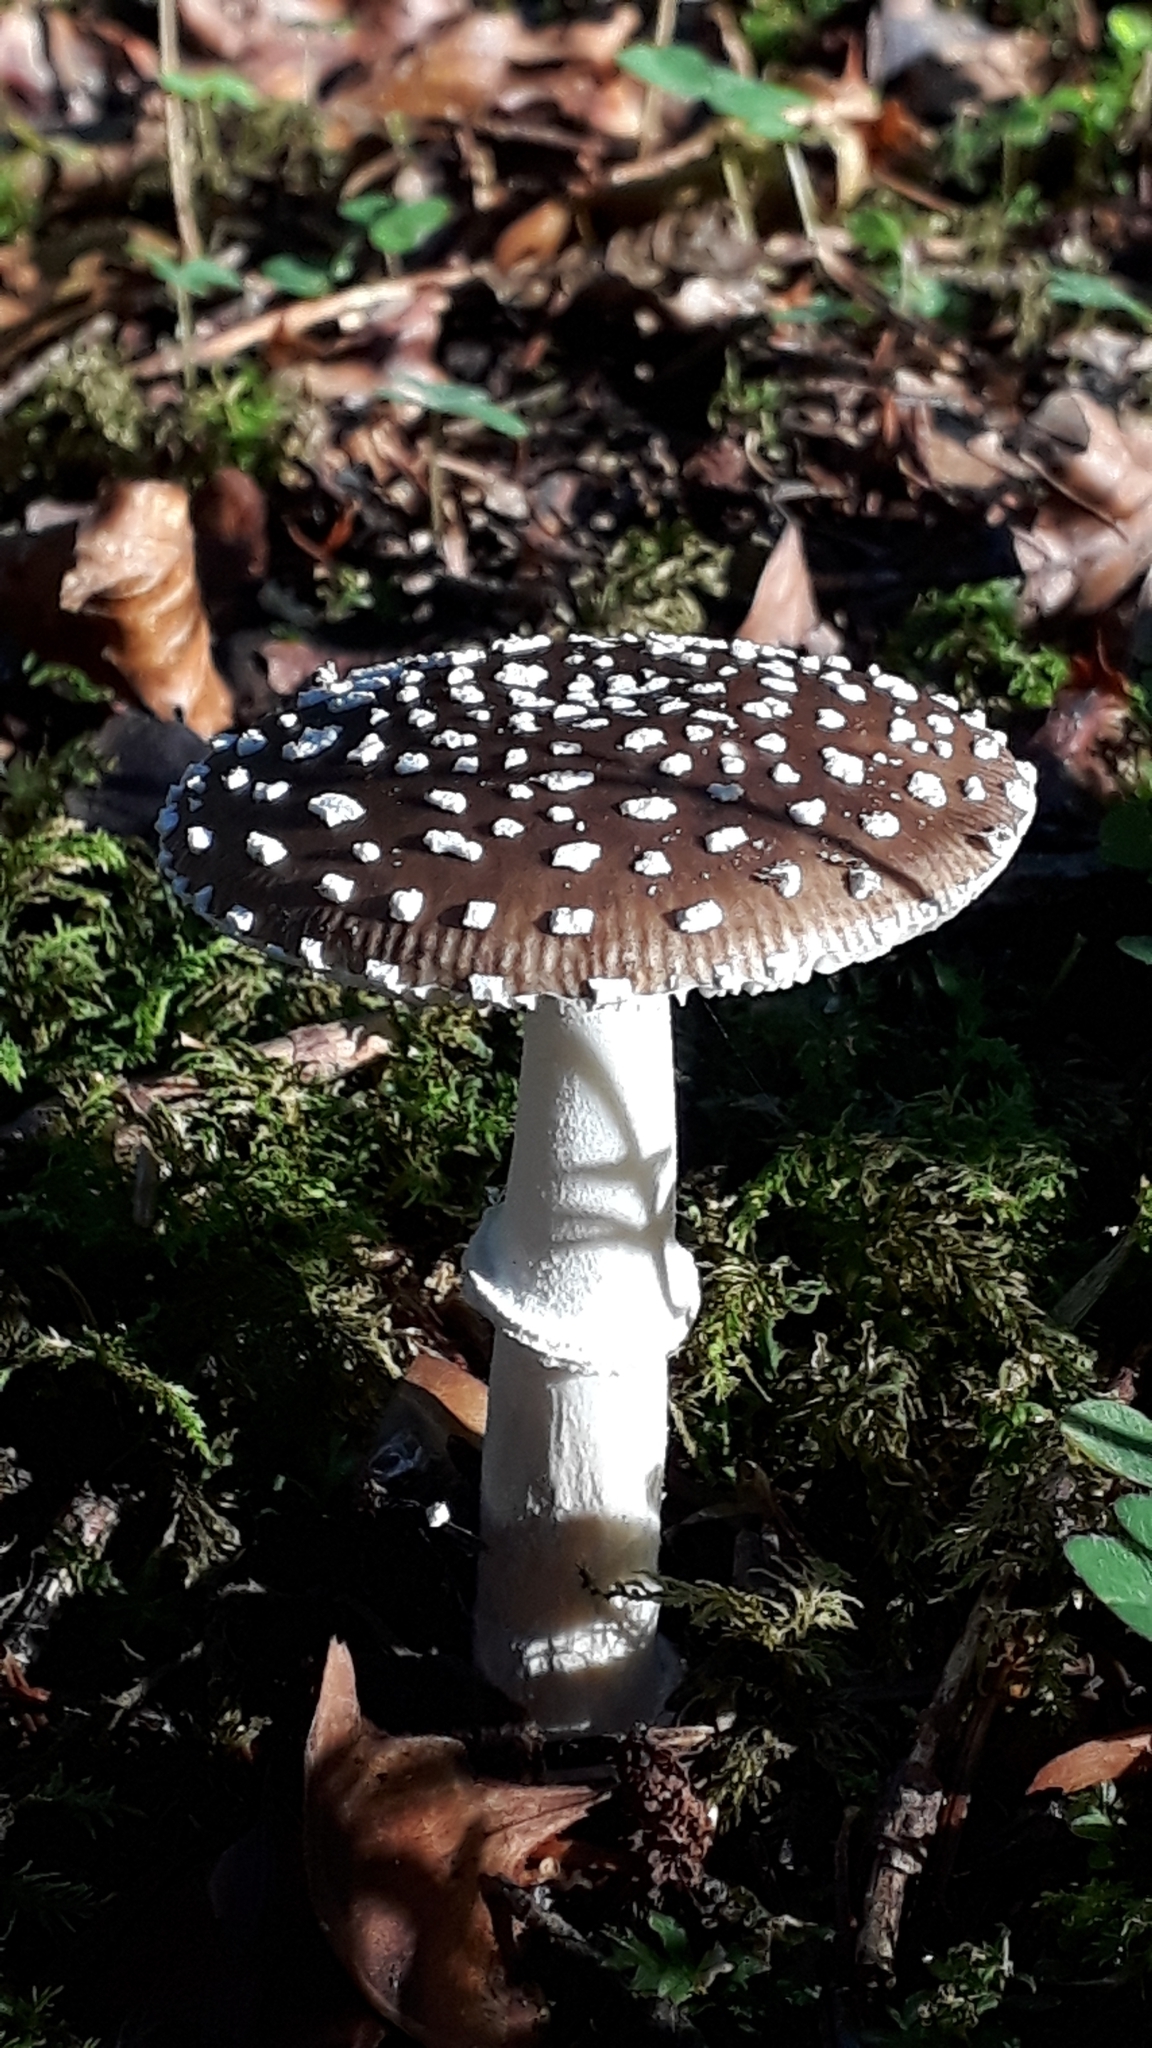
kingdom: Fungi
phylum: Basidiomycota
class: Agaricomycetes
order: Agaricales
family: Amanitaceae
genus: Amanita
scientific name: Amanita pantherina
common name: Panthercap
